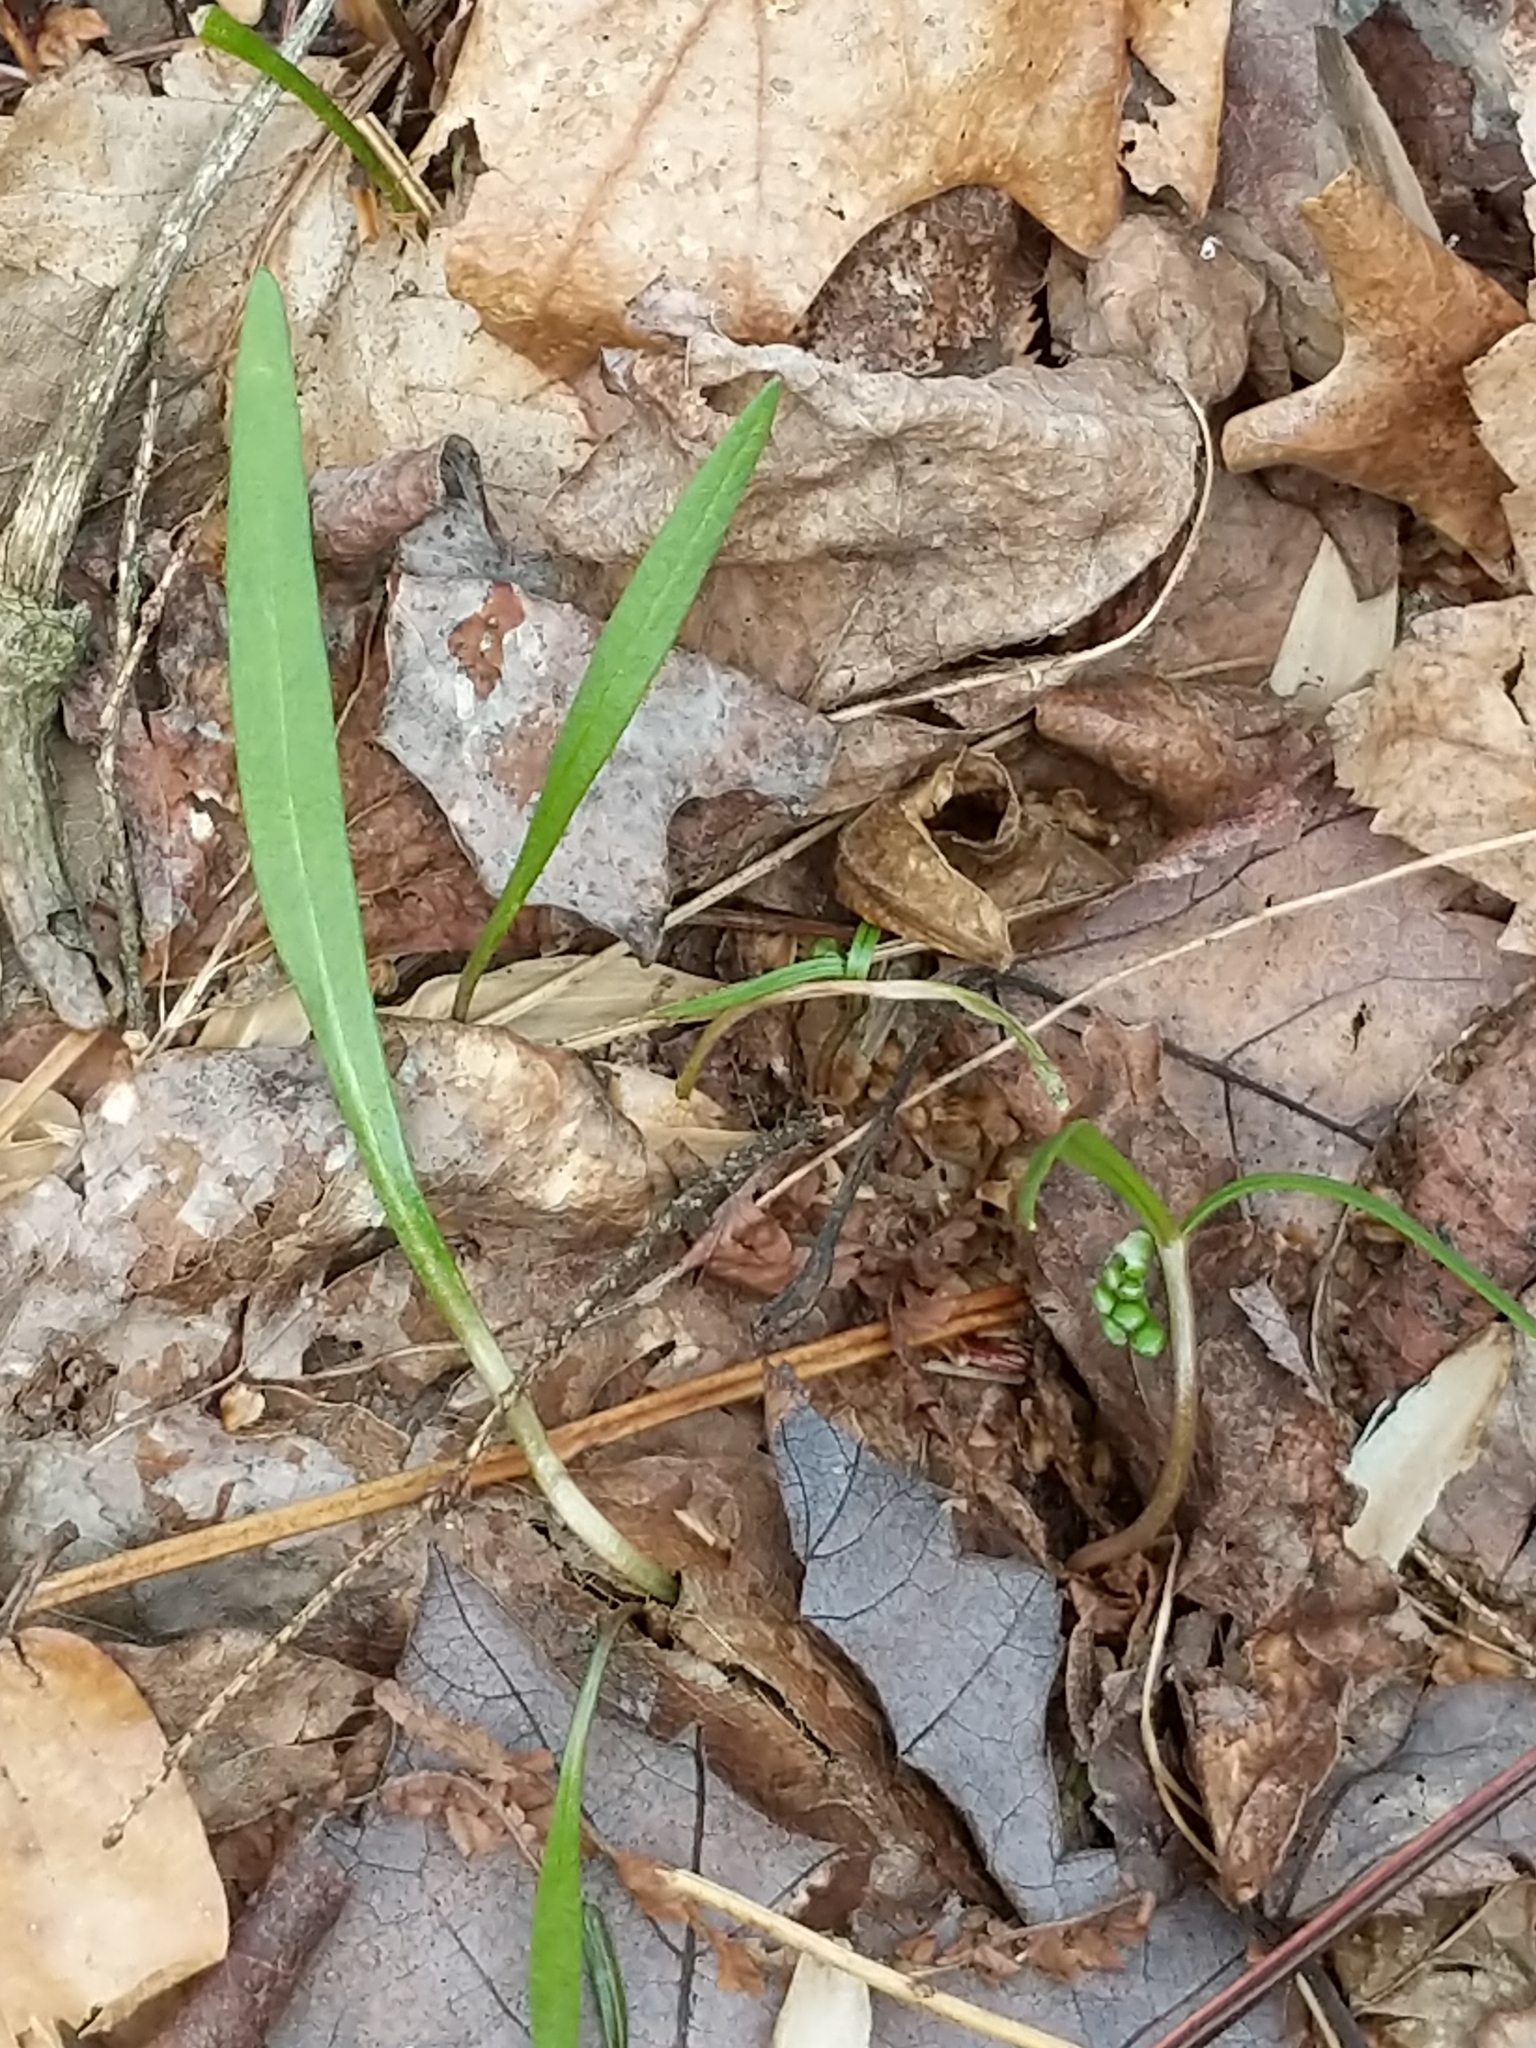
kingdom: Plantae
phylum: Tracheophyta
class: Magnoliopsida
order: Caryophyllales
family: Montiaceae
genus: Claytonia
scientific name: Claytonia virginica
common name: Virginia springbeauty
